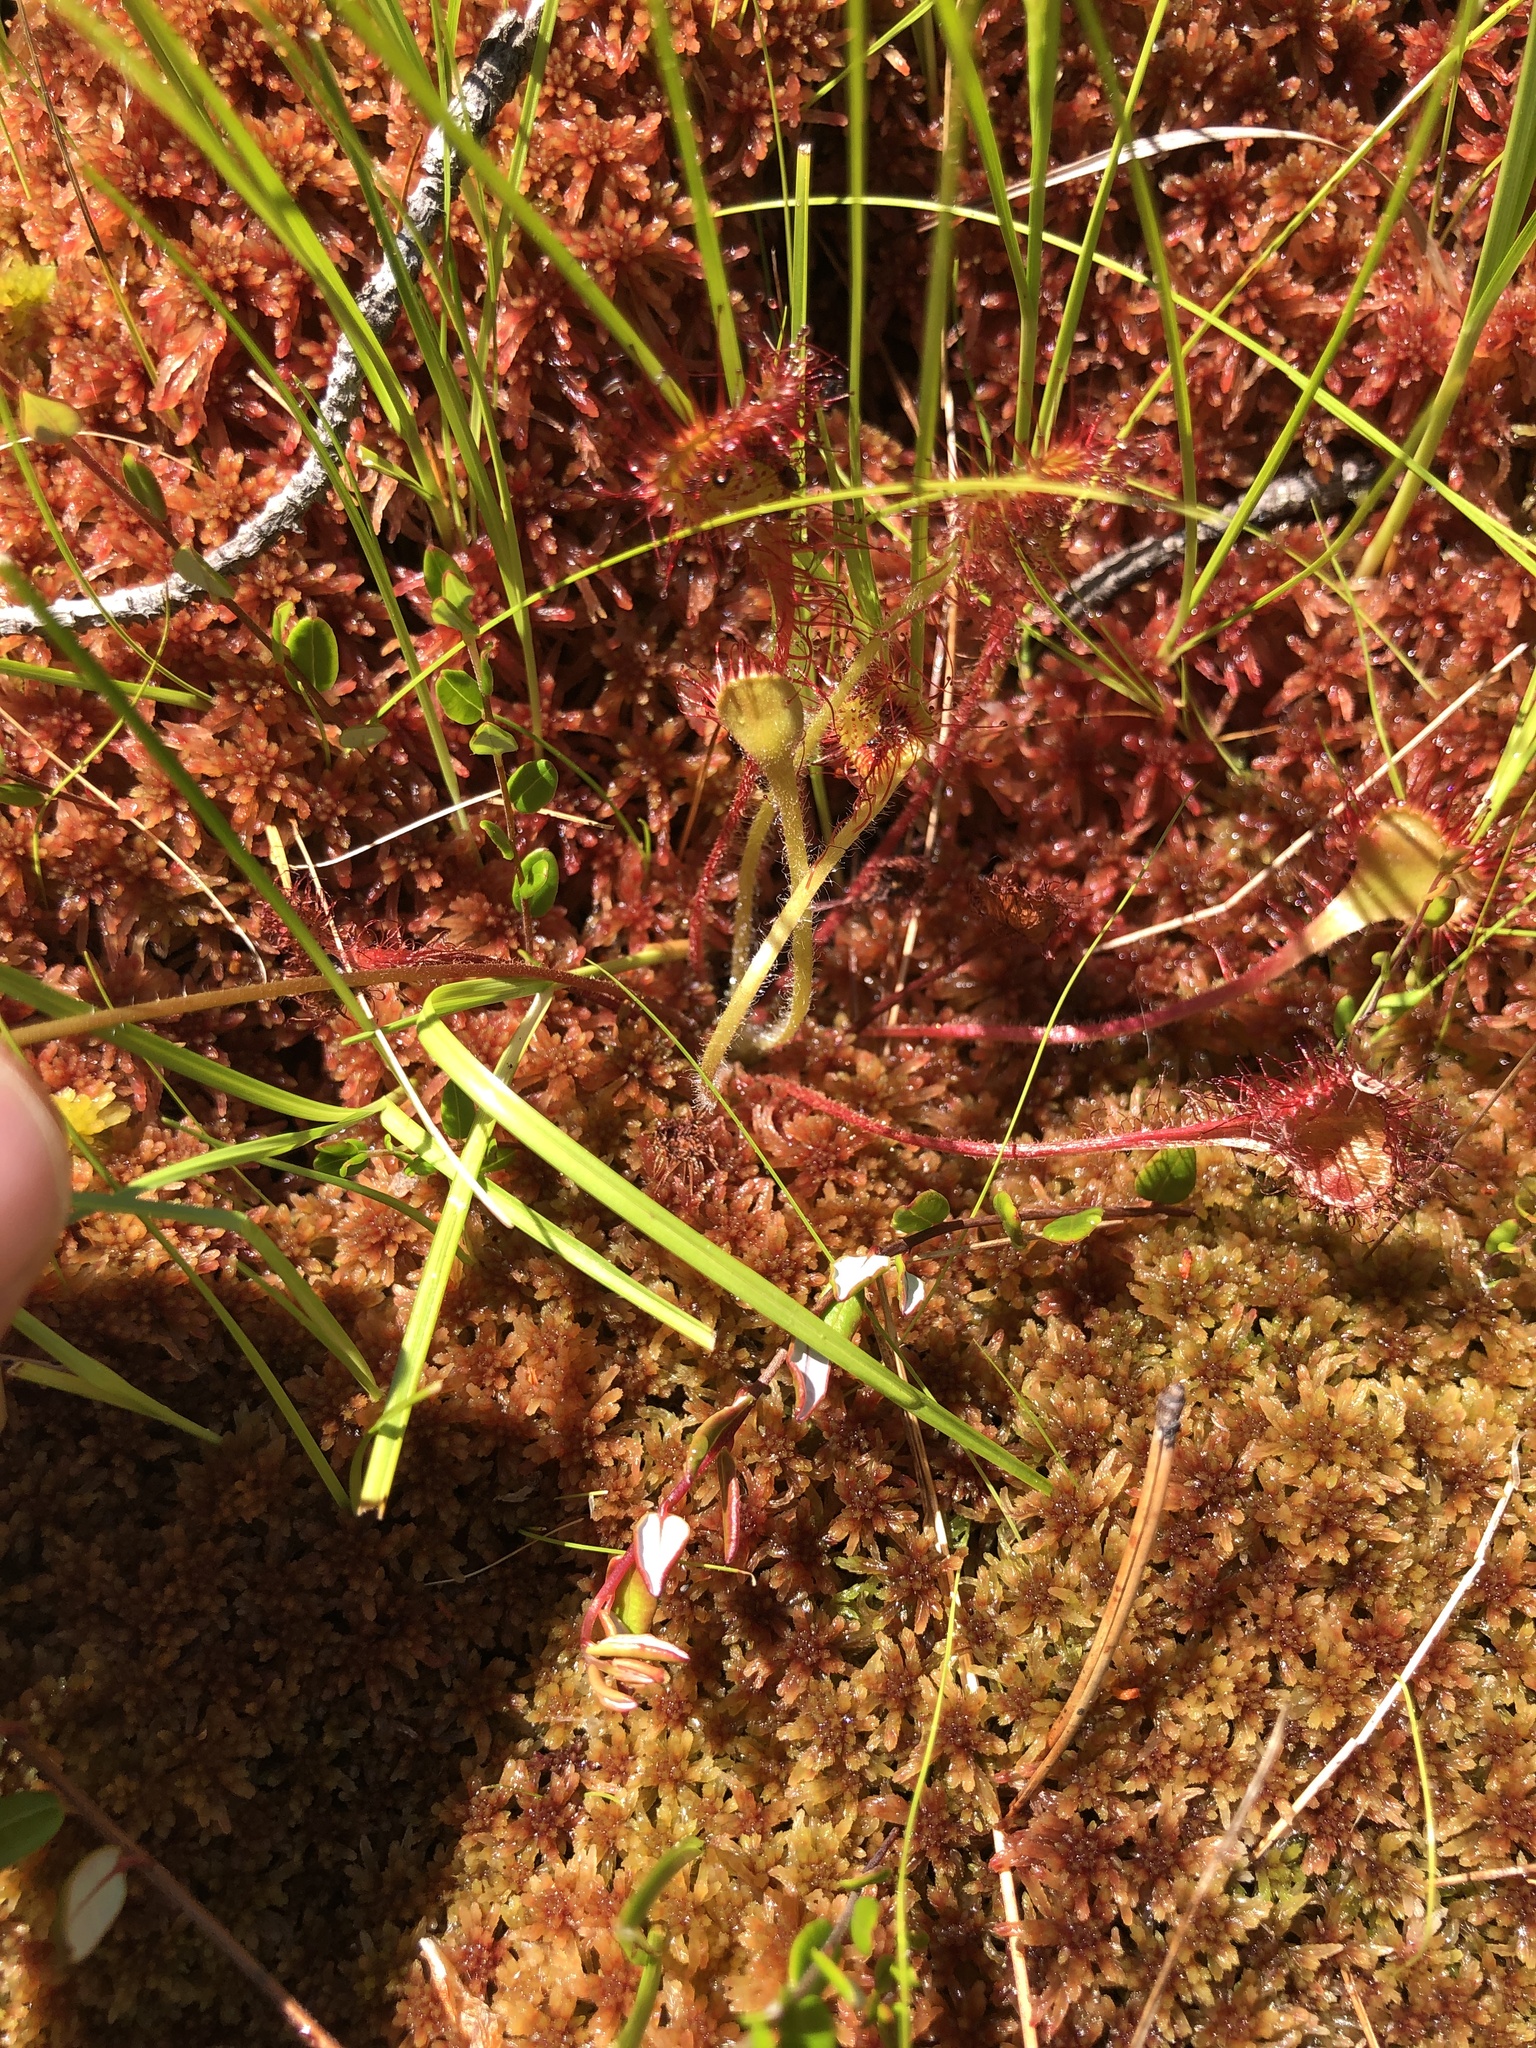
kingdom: Plantae
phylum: Tracheophyta
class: Magnoliopsida
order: Caryophyllales
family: Droseraceae
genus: Drosera
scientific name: Drosera rotundifolia
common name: Round-leaved sundew
